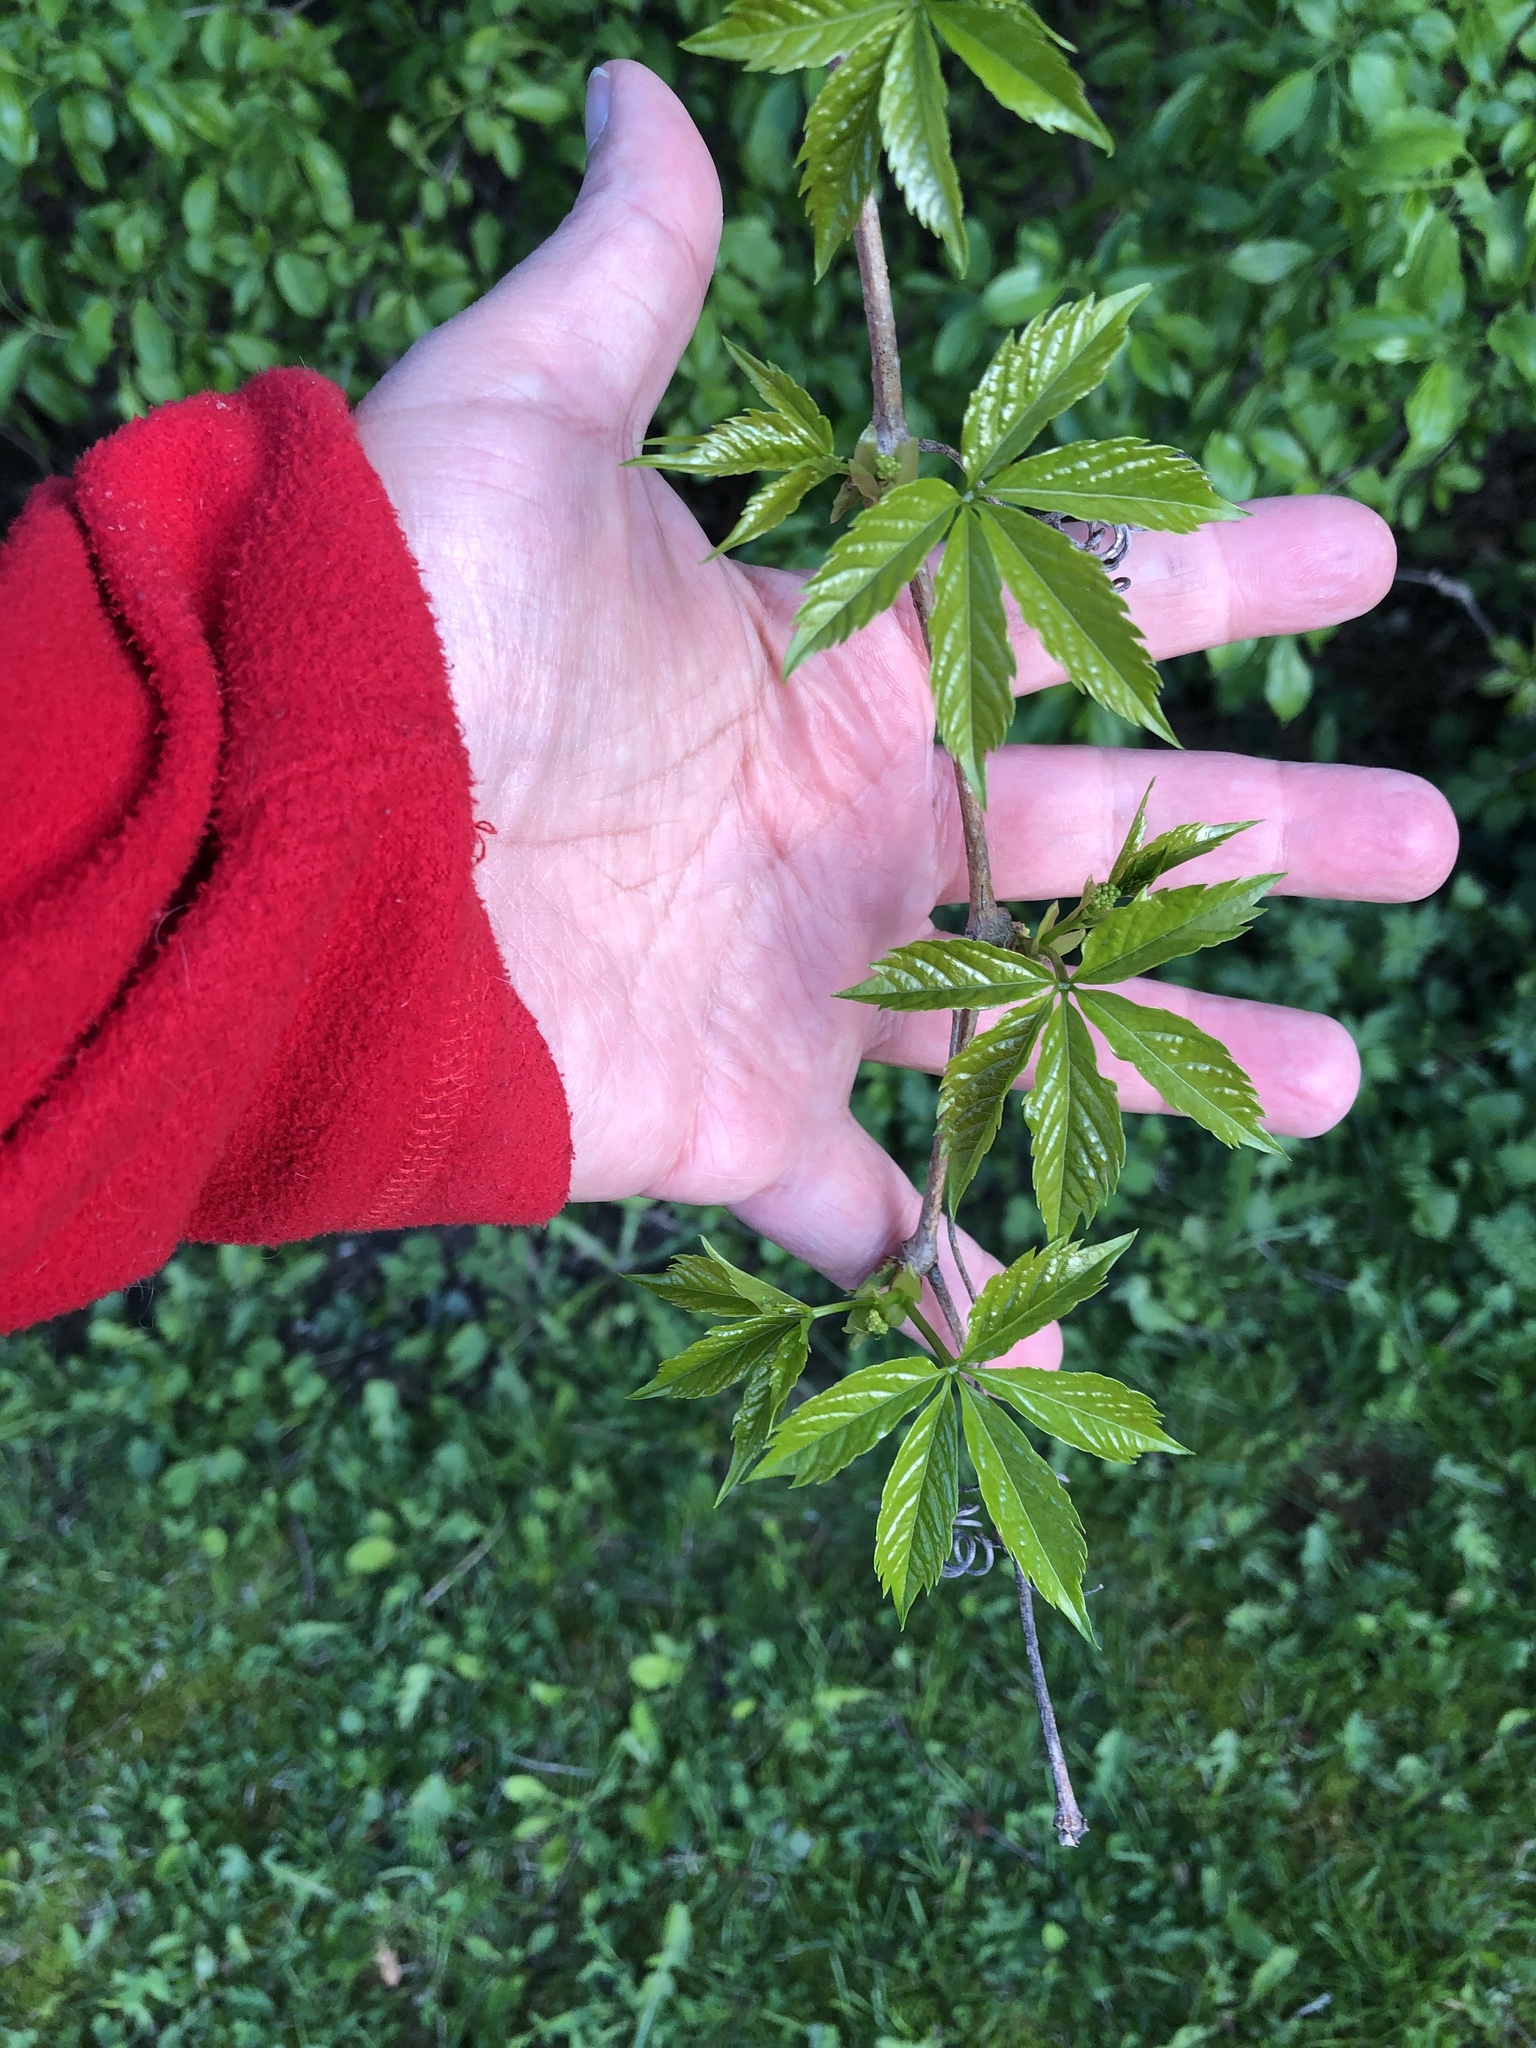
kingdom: Plantae
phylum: Tracheophyta
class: Magnoliopsida
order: Vitales
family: Vitaceae
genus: Parthenocissus
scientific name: Parthenocissus quinquefolia
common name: Virginia-creeper
